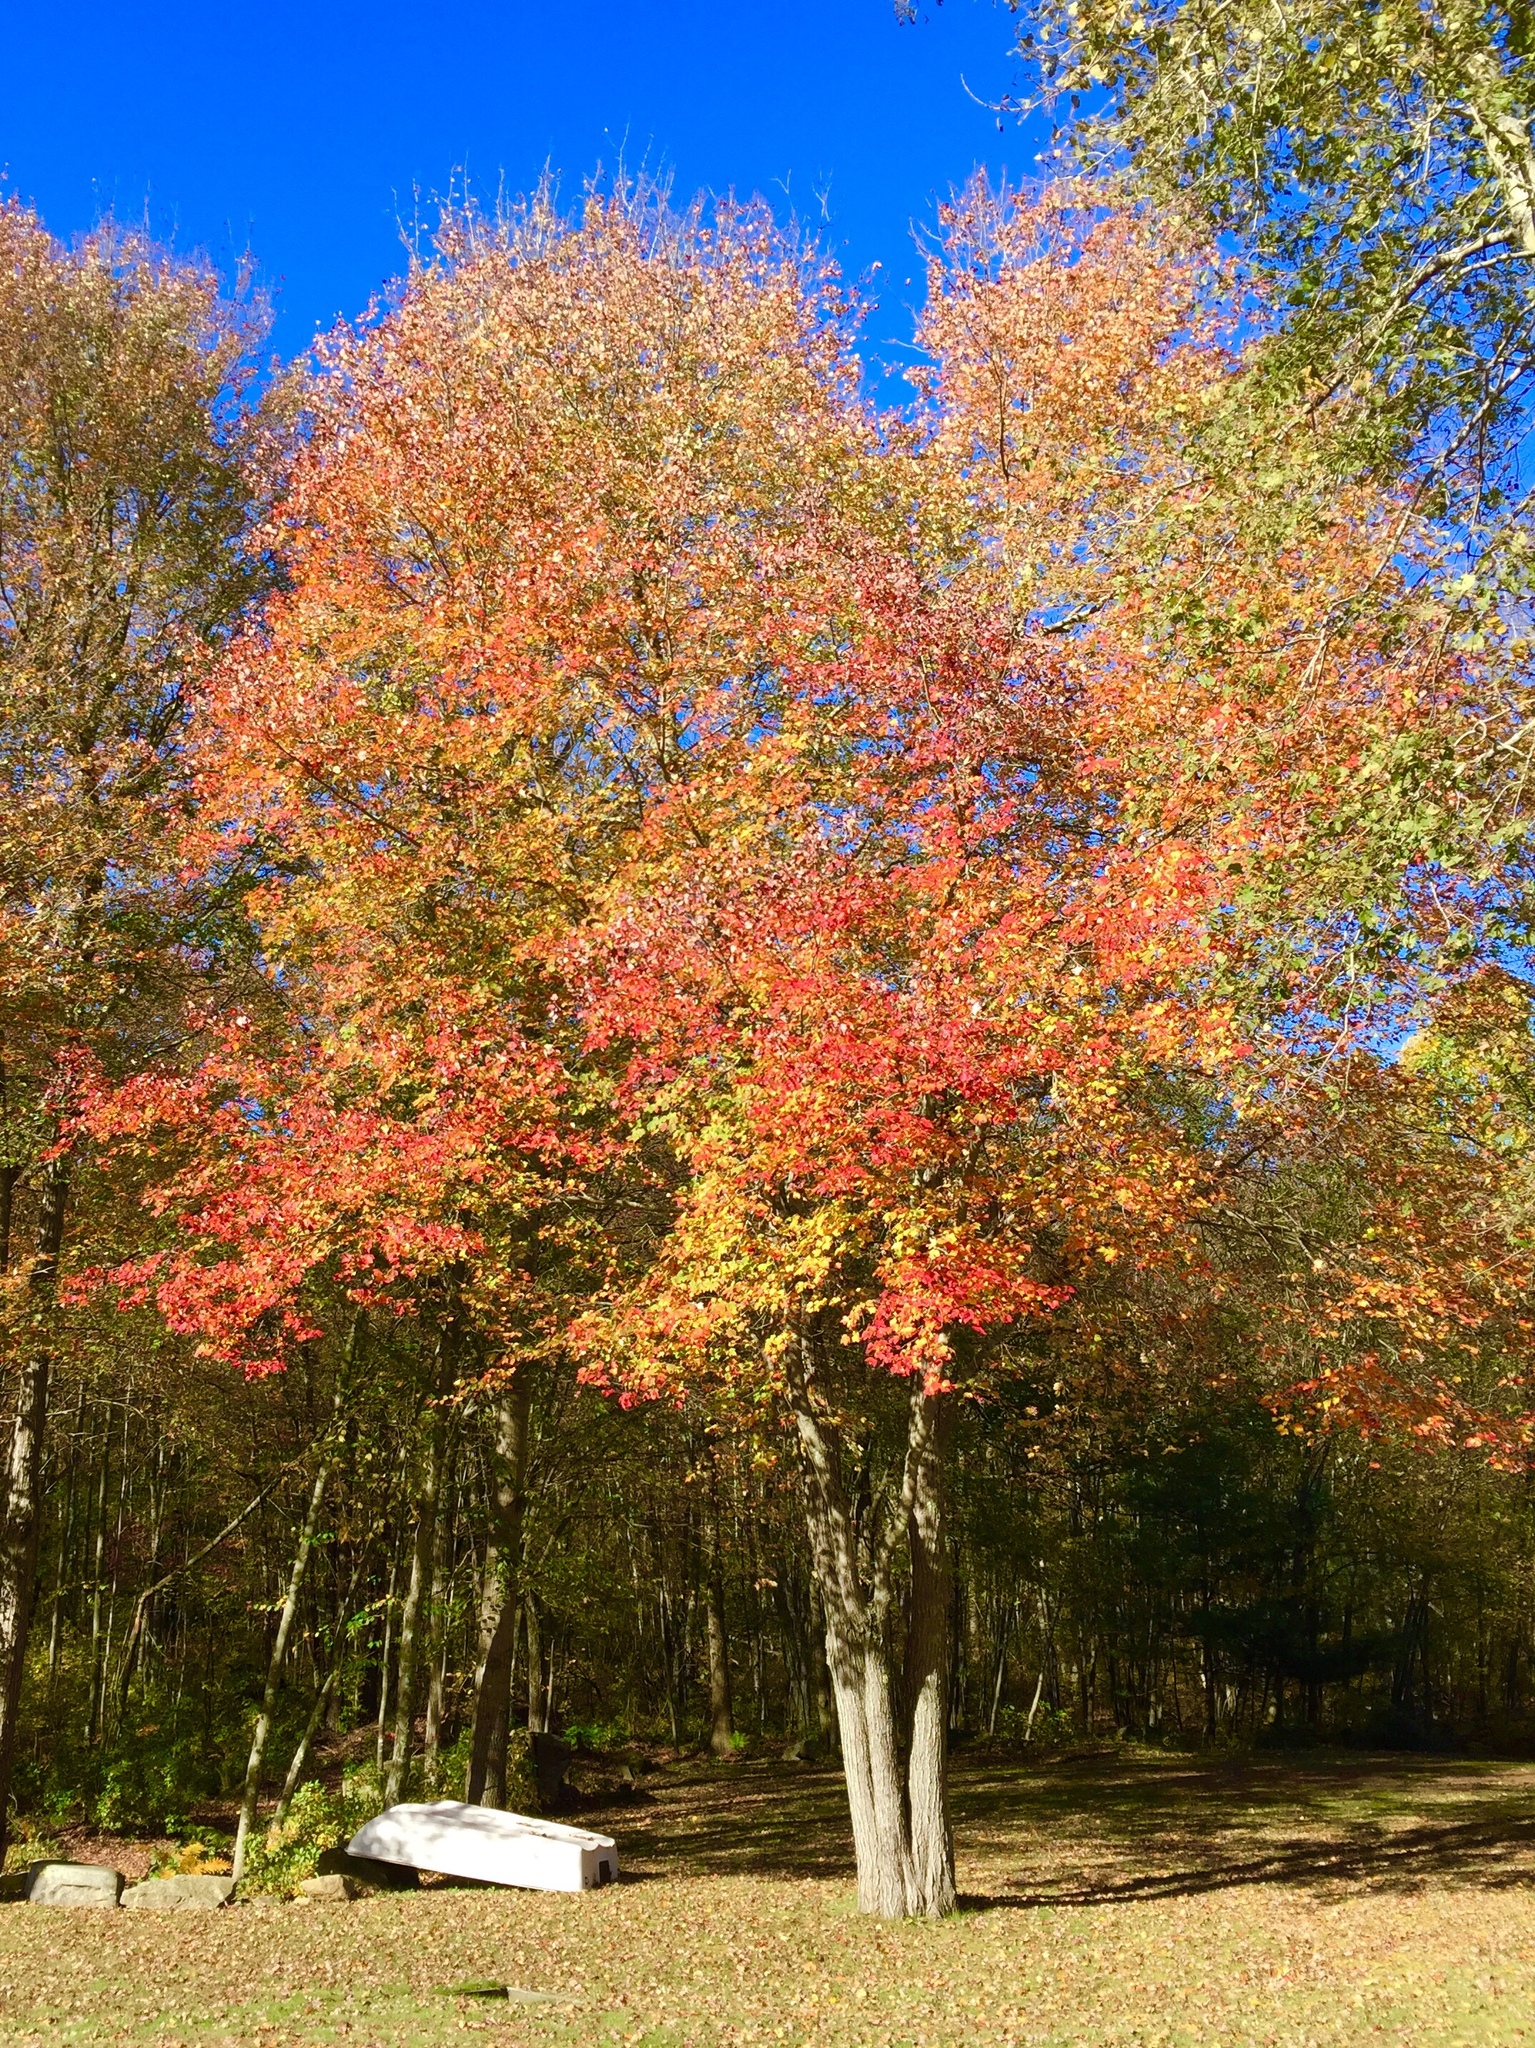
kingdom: Plantae
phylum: Tracheophyta
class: Magnoliopsida
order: Sapindales
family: Sapindaceae
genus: Acer
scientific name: Acer saccharum
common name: Sugar maple
